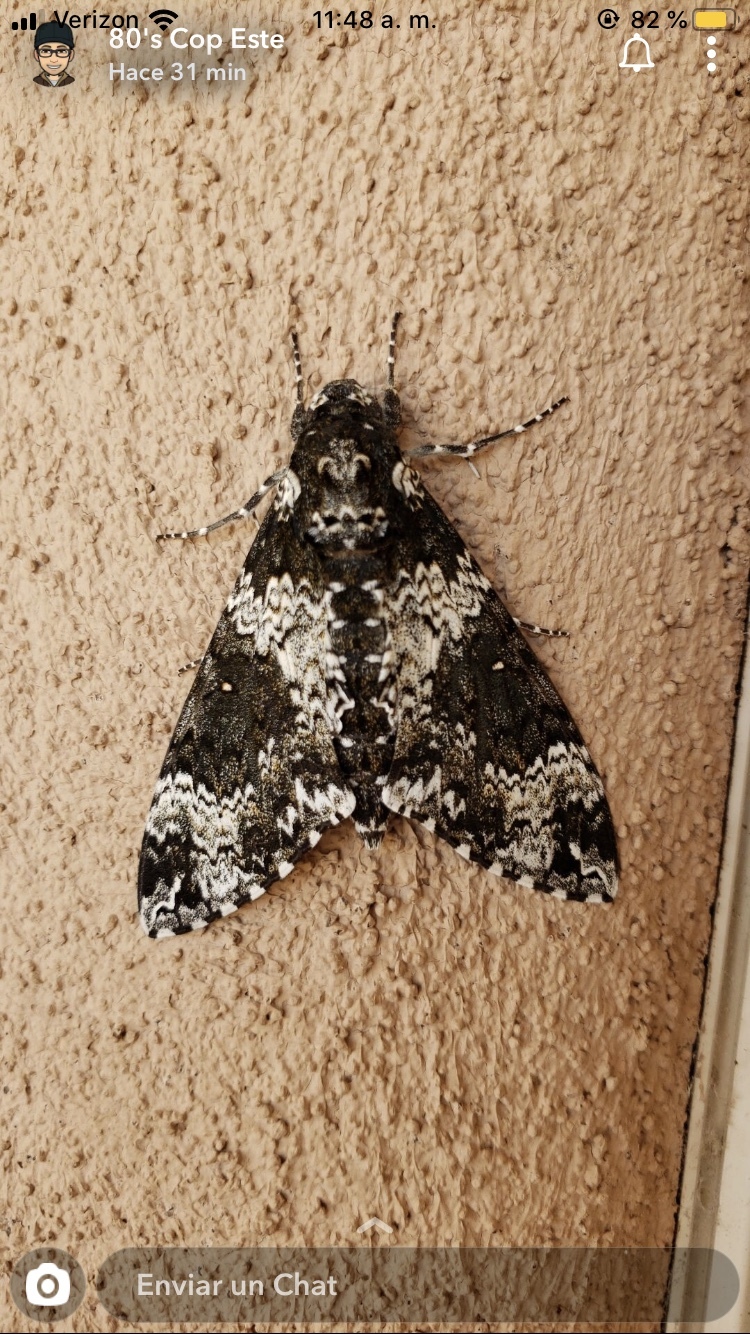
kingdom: Animalia
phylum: Arthropoda
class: Insecta
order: Lepidoptera
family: Sphingidae
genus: Manduca
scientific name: Manduca rustica
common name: Rustic sphinx
